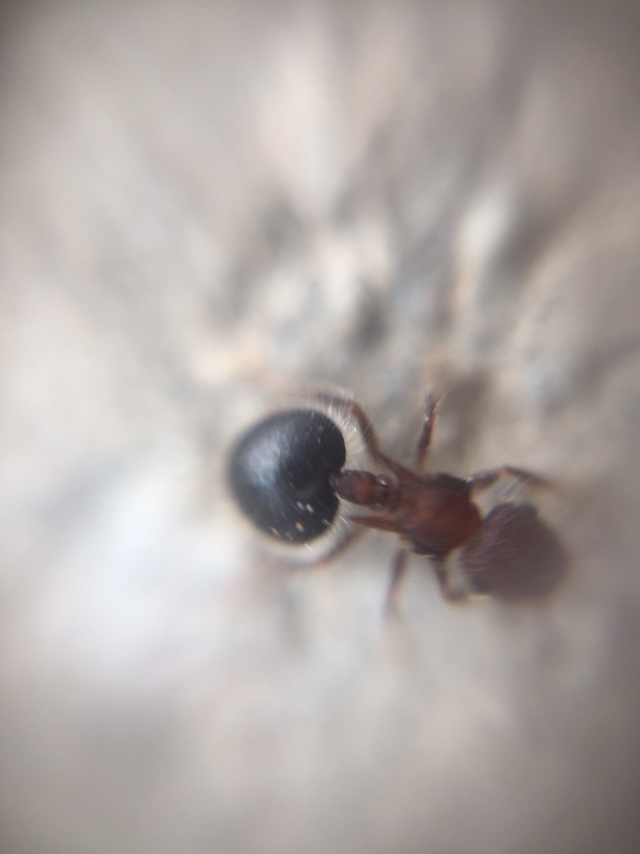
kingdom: Animalia
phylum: Arthropoda
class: Insecta
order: Hymenoptera
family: Formicidae
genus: Meranoplus
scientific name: Meranoplus bicolor
